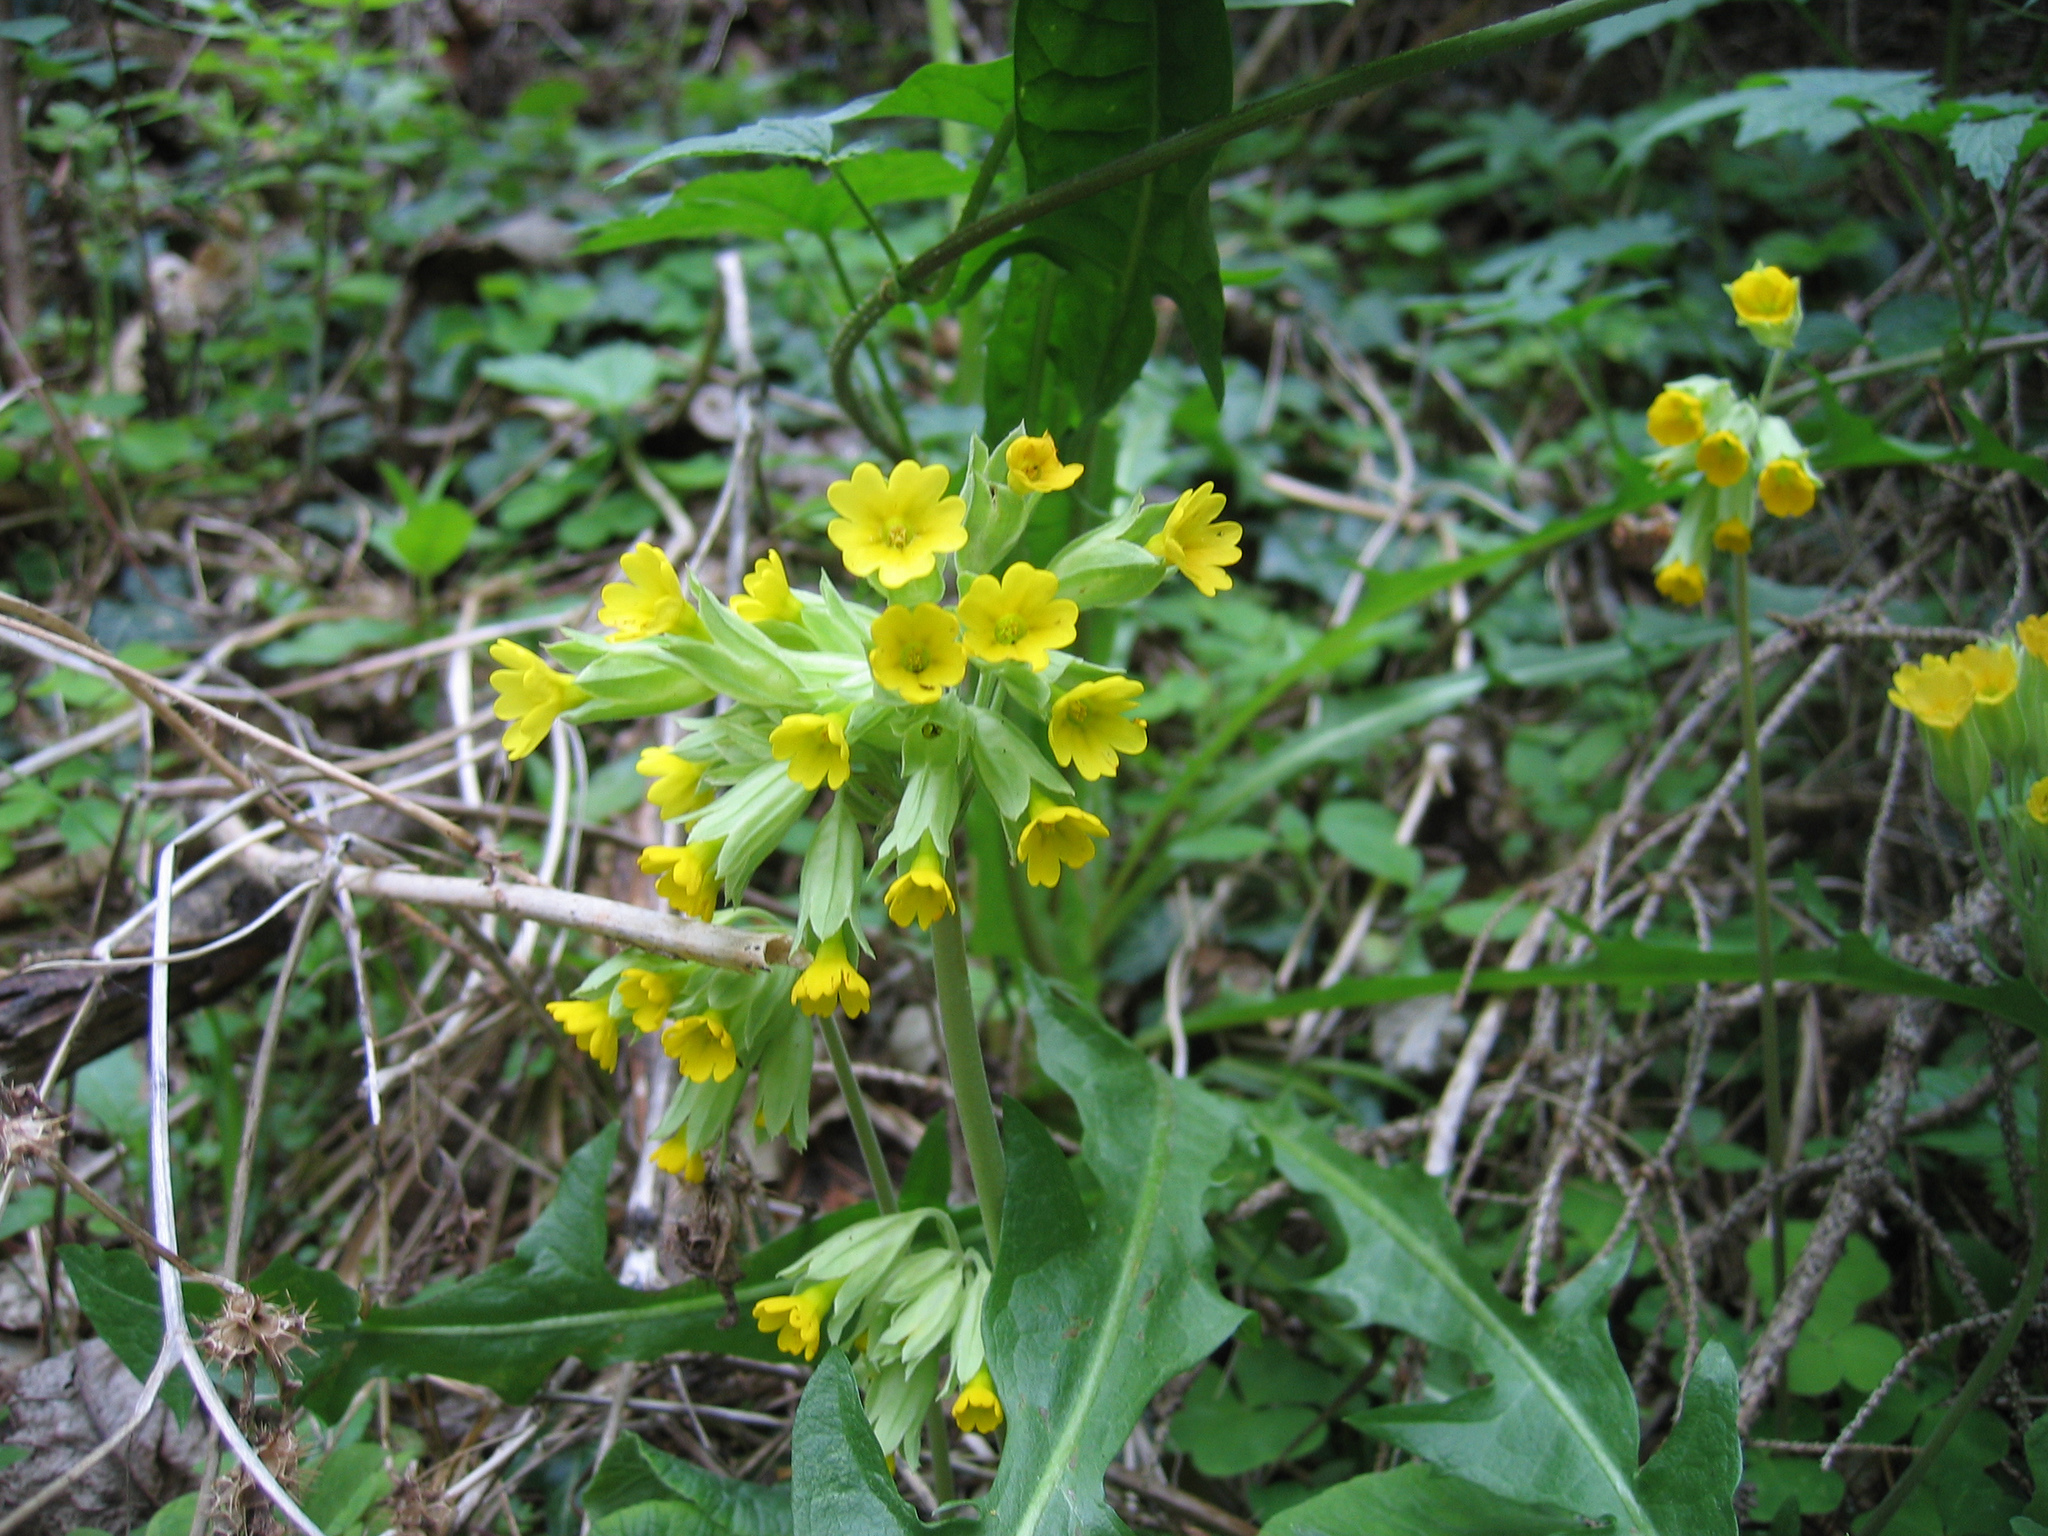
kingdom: Plantae
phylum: Tracheophyta
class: Magnoliopsida
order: Ericales
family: Primulaceae
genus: Primula
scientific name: Primula veris
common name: Cowslip
